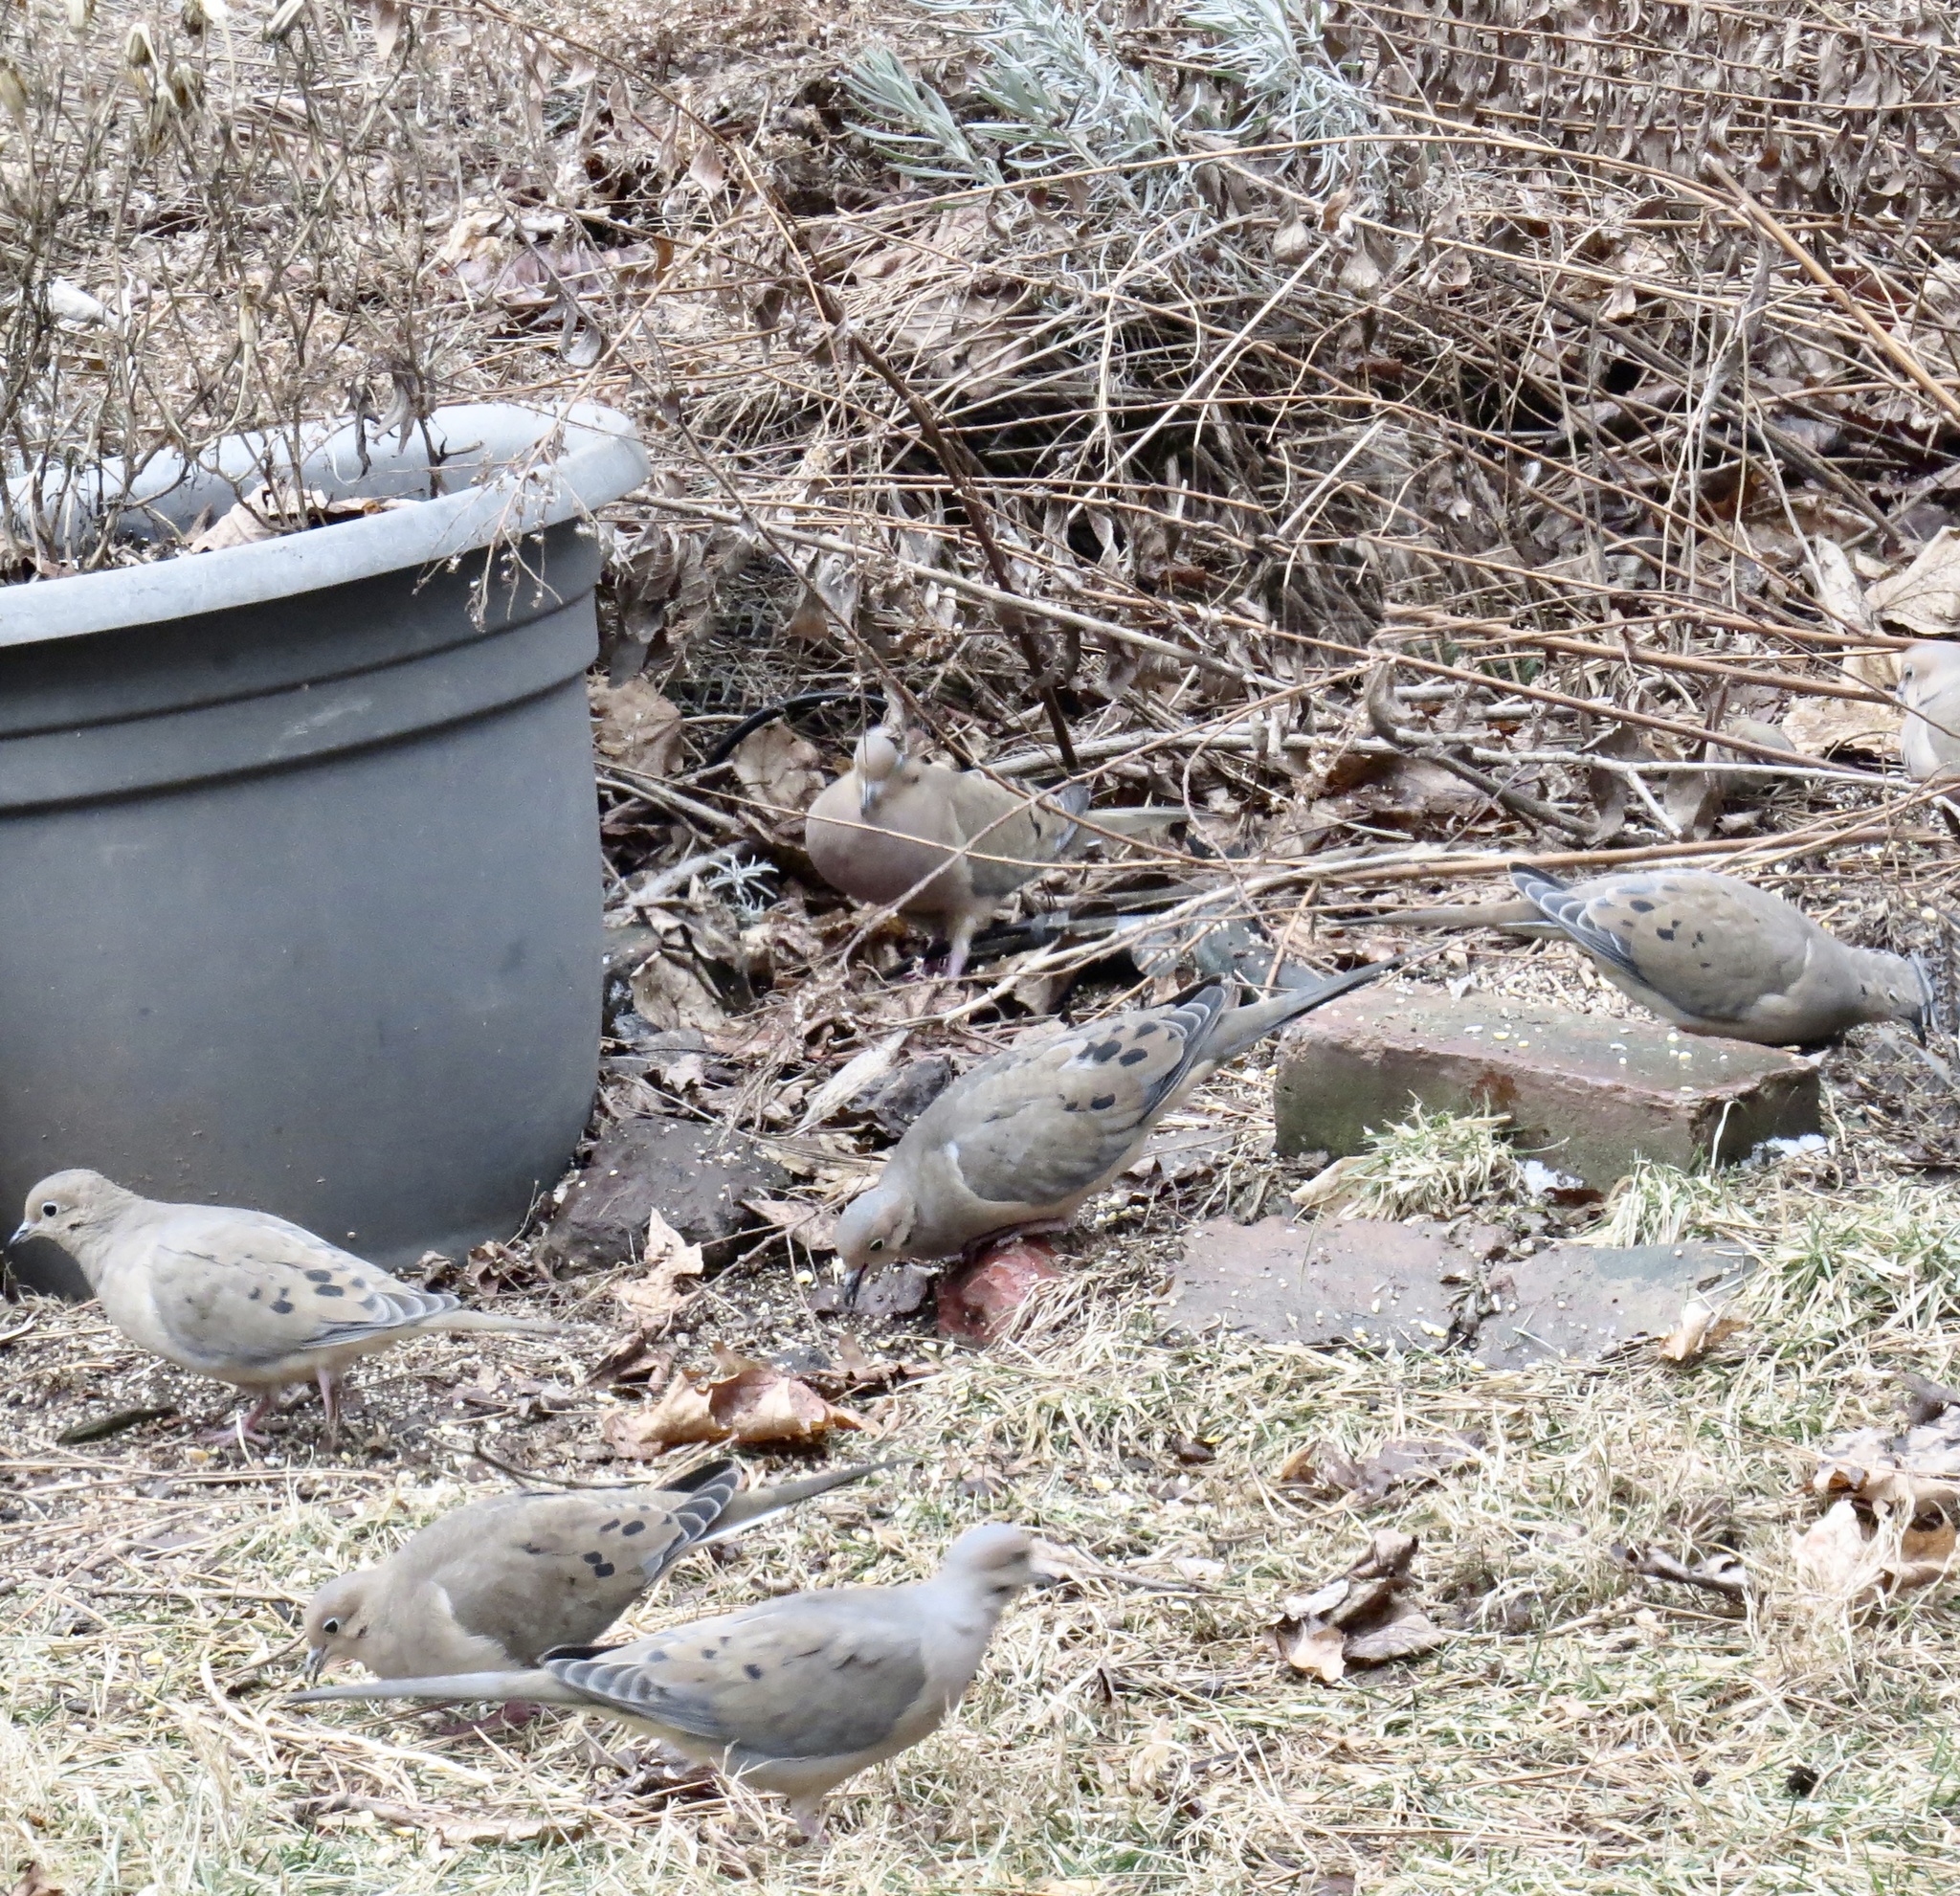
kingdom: Animalia
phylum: Chordata
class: Aves
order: Columbiformes
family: Columbidae
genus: Zenaida
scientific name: Zenaida macroura
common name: Mourning dove
